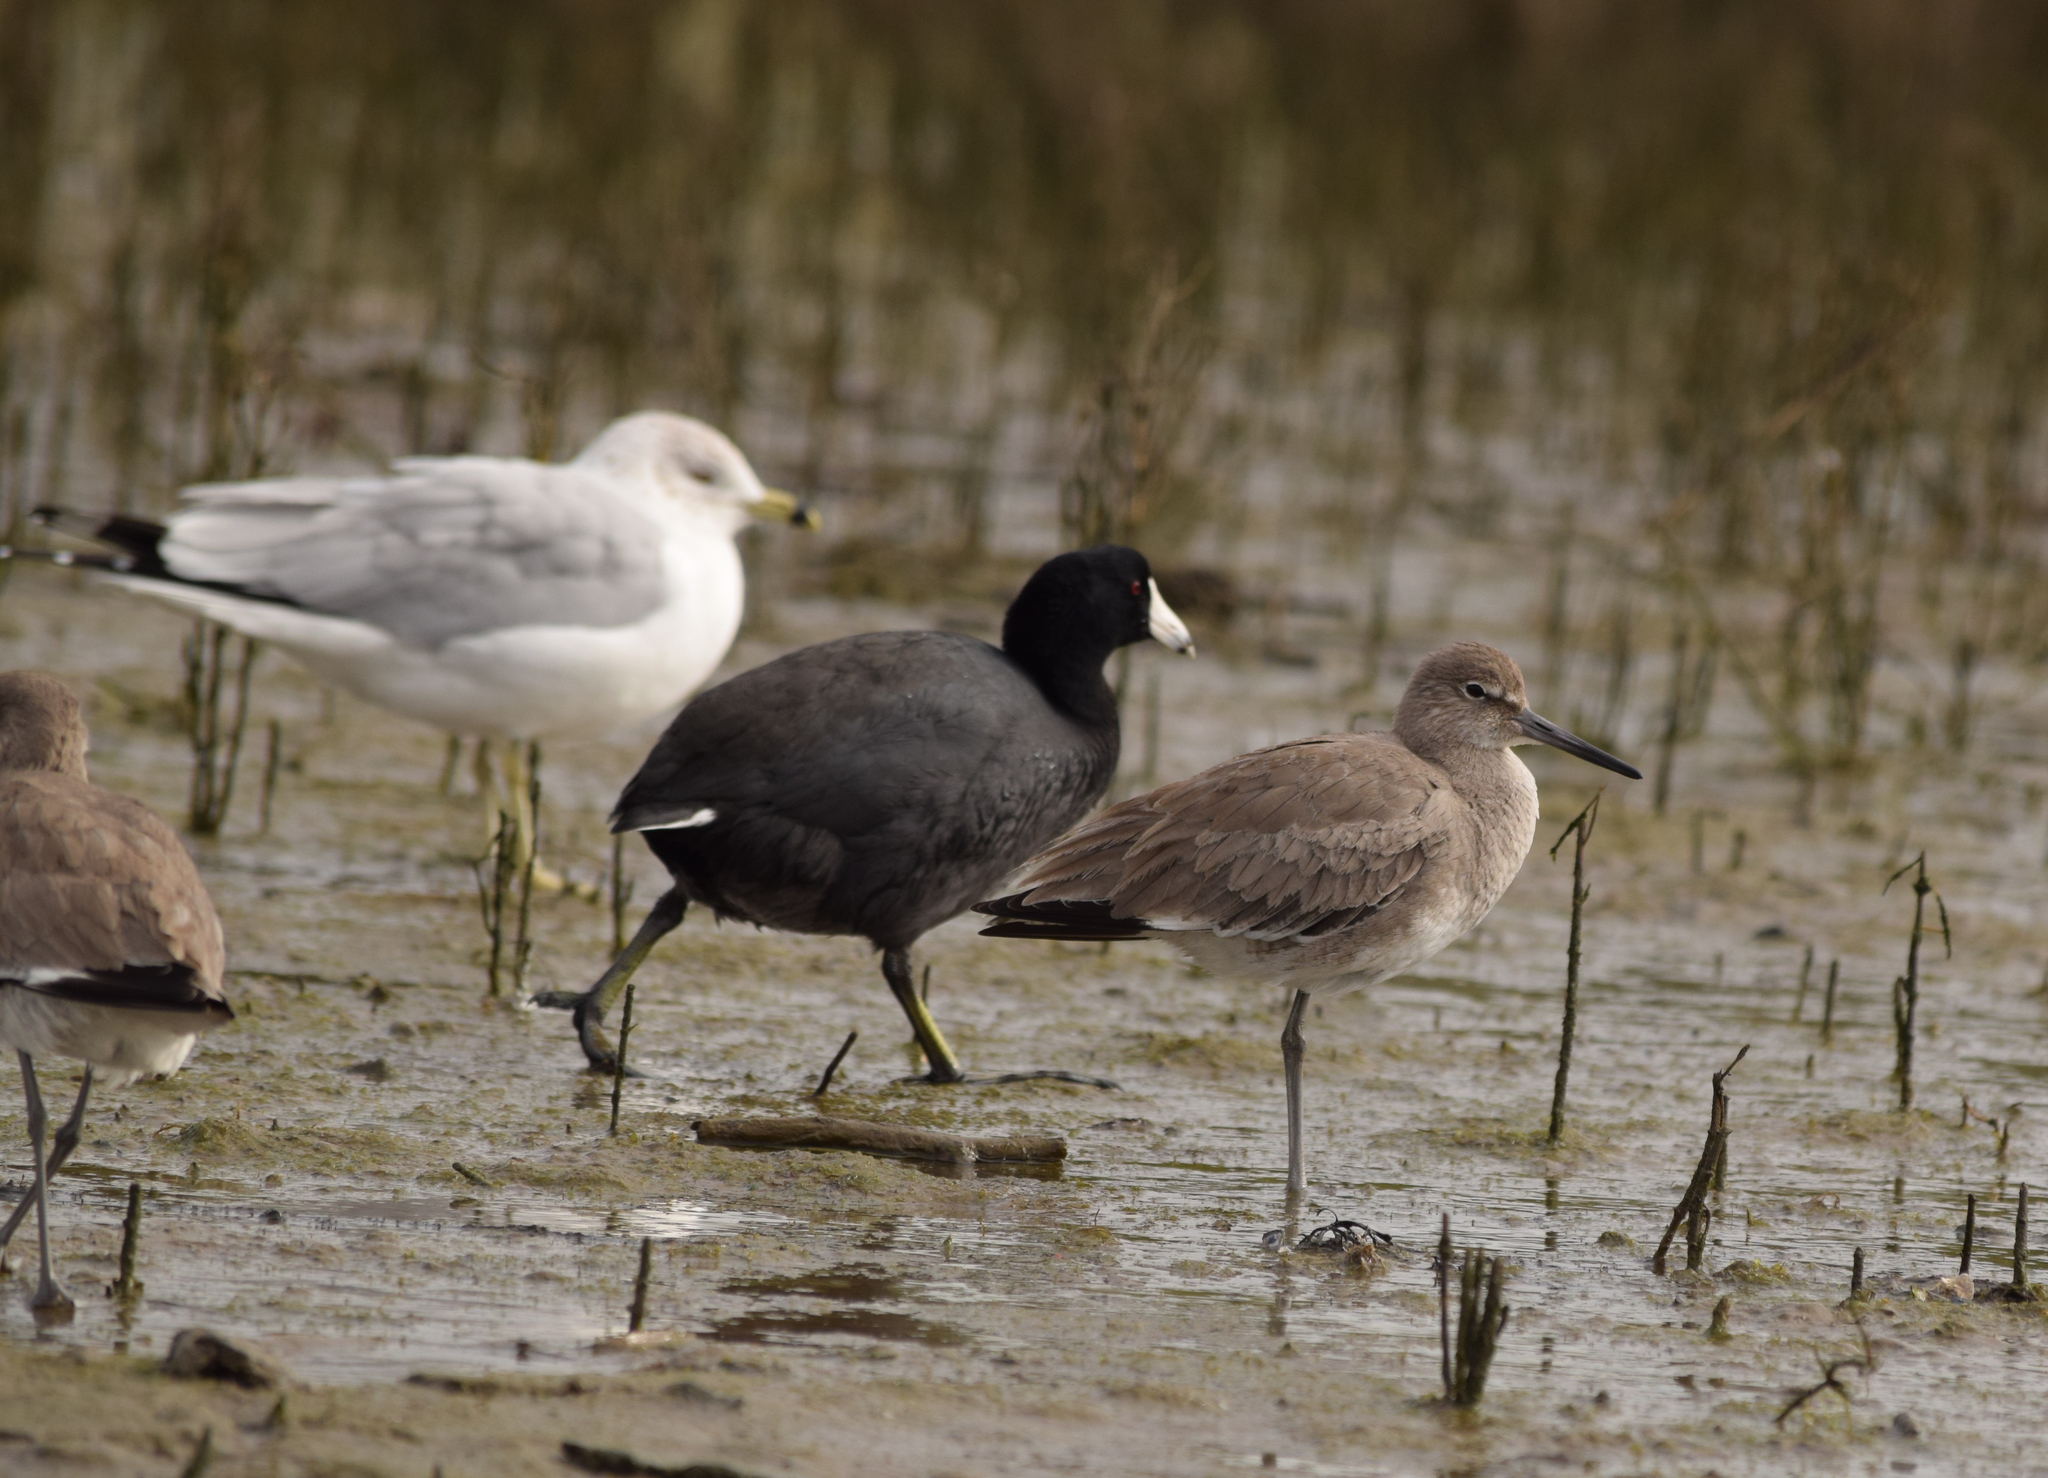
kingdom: Animalia
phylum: Chordata
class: Aves
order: Charadriiformes
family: Scolopacidae
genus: Tringa
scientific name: Tringa semipalmata
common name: Willet
